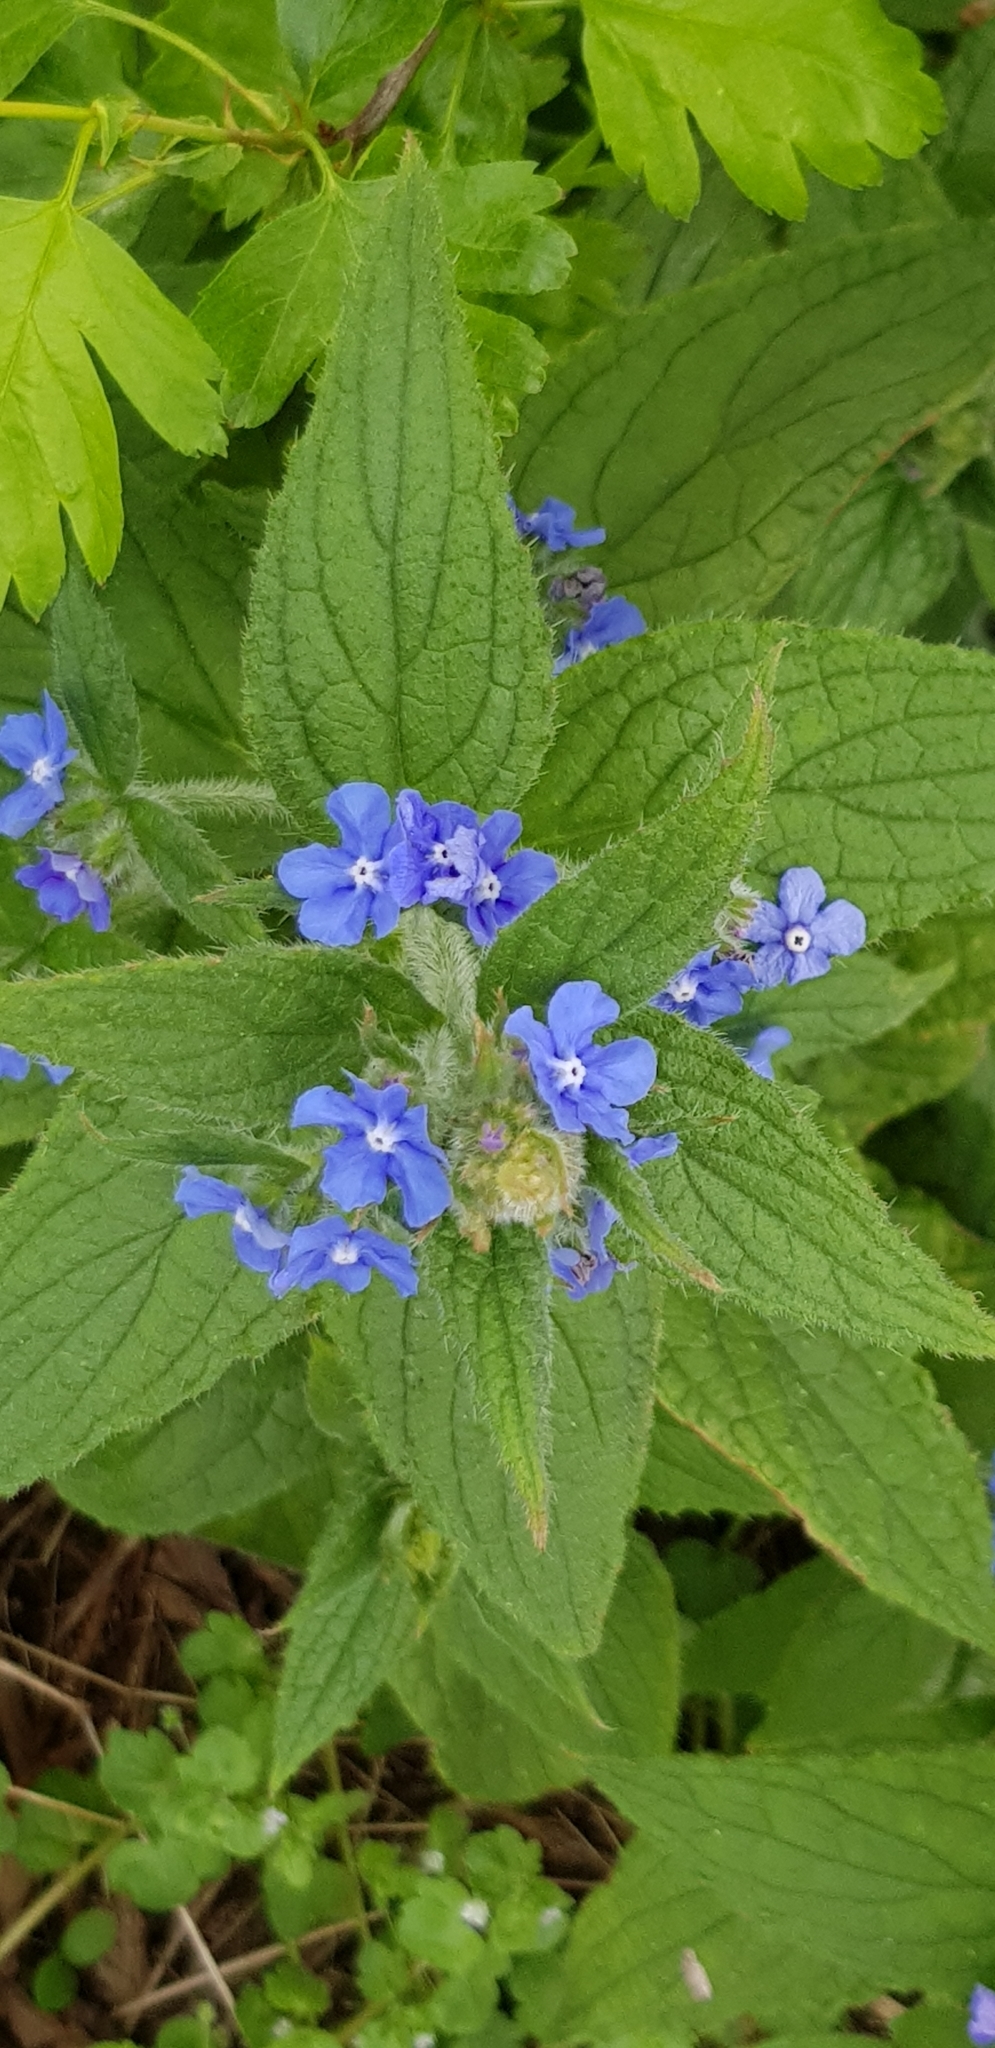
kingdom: Plantae
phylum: Tracheophyta
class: Magnoliopsida
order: Boraginales
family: Boraginaceae
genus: Pentaglottis
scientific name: Pentaglottis sempervirens
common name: Green alkanet
